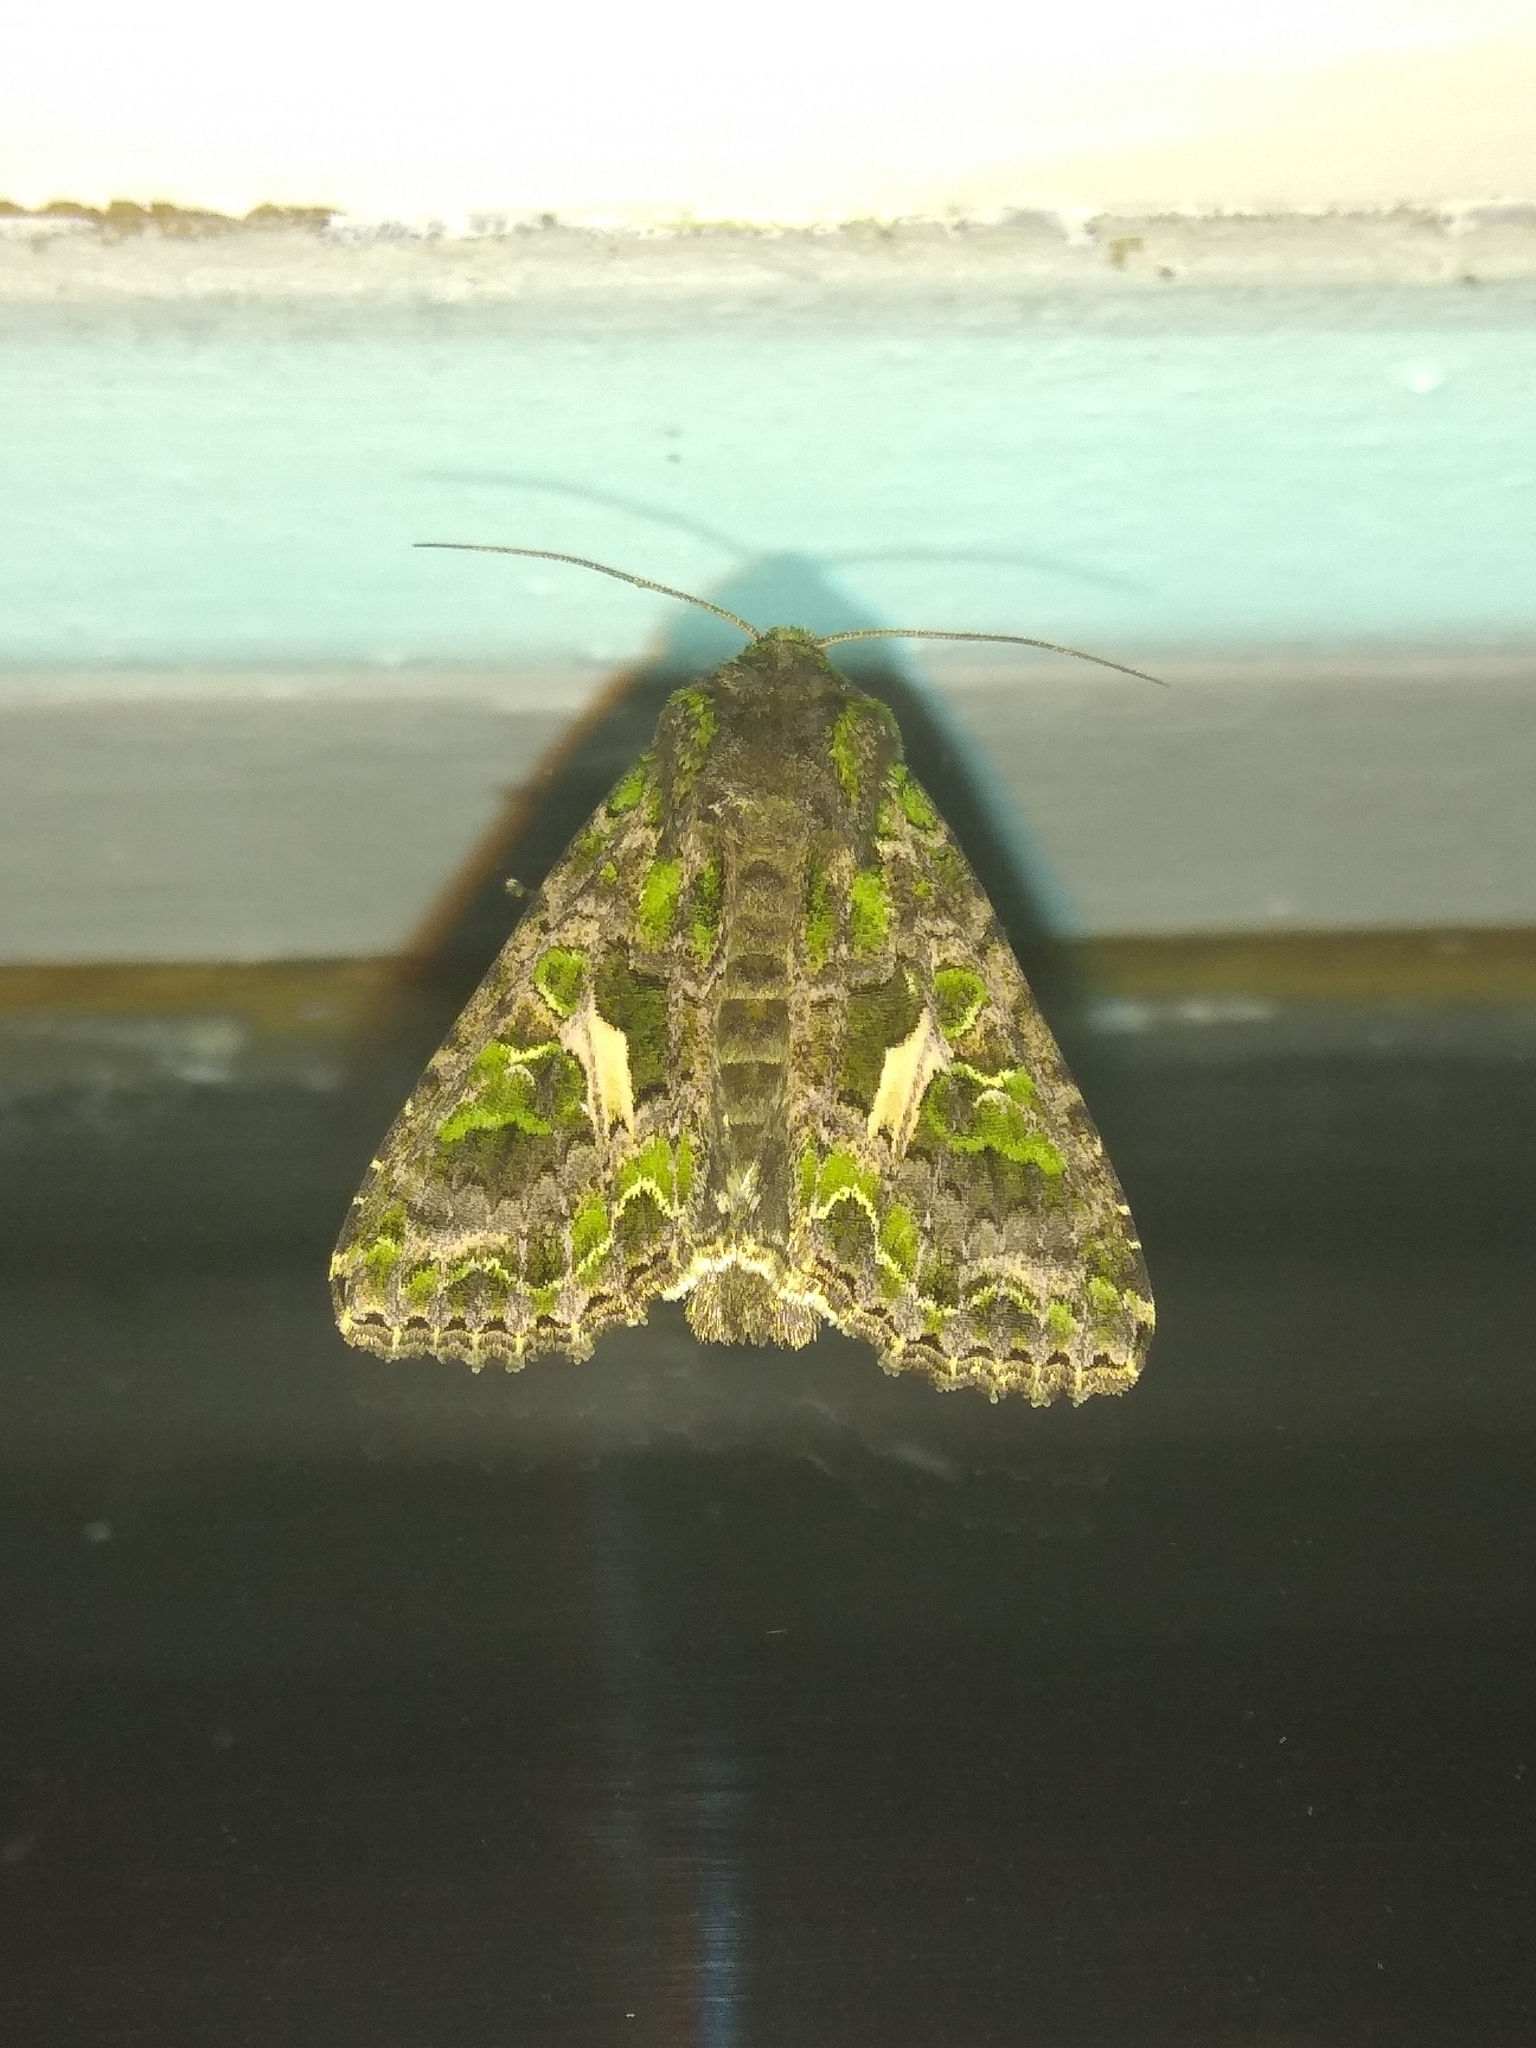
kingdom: Animalia
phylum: Arthropoda
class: Insecta
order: Lepidoptera
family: Noctuidae
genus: Trachea
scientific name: Trachea atriplicis
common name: Orache moth
